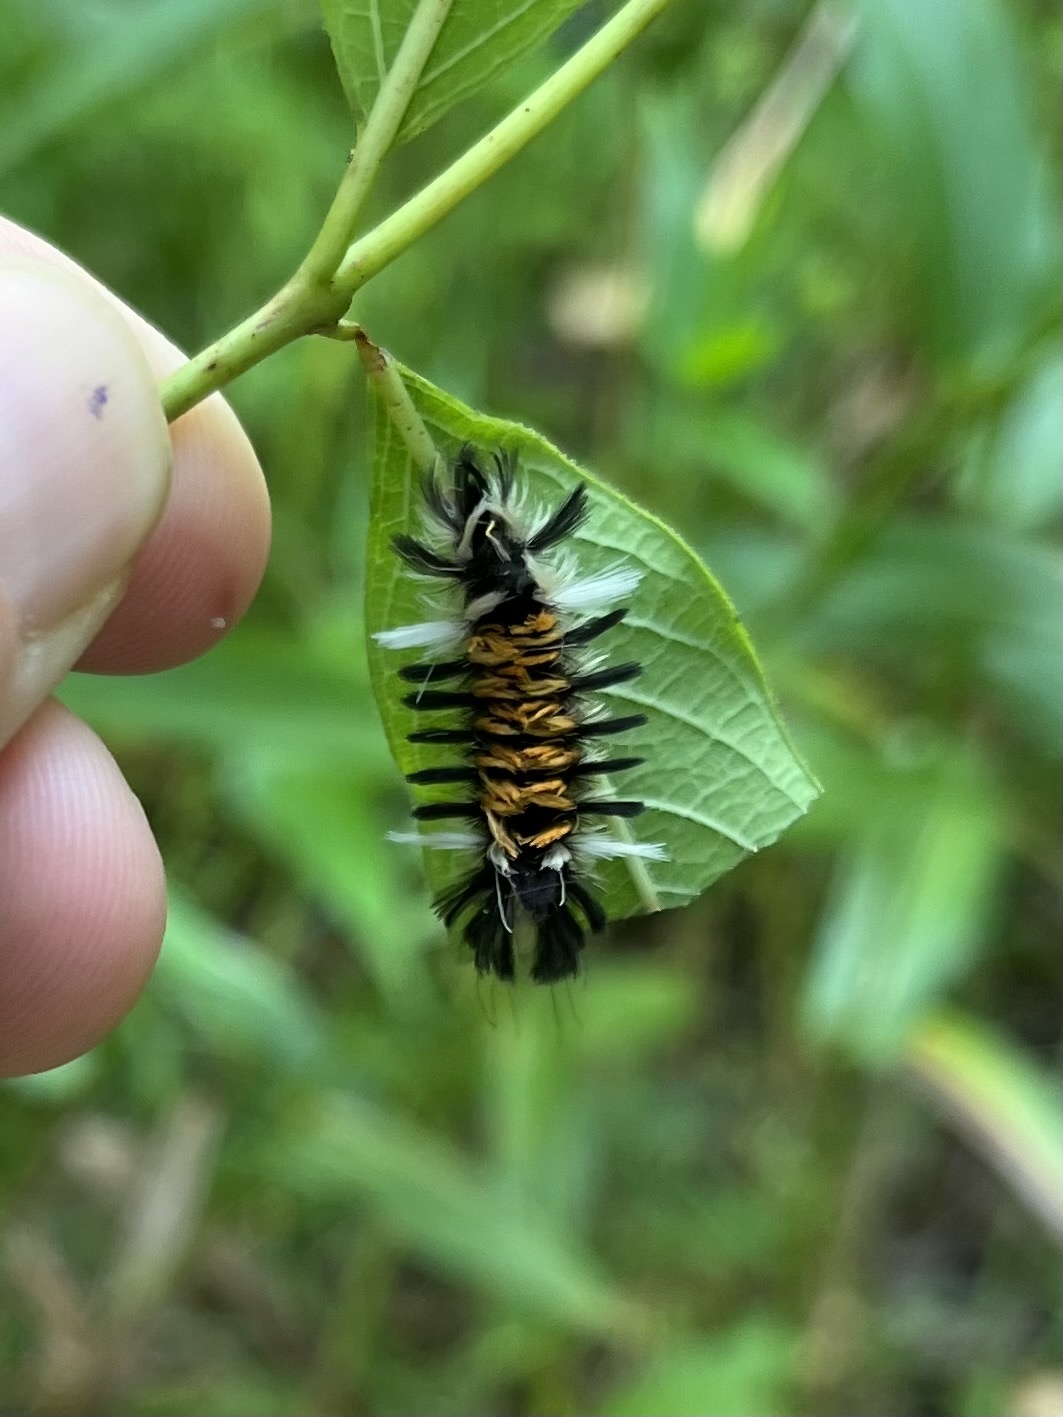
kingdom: Animalia
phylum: Arthropoda
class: Insecta
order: Lepidoptera
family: Erebidae
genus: Euchaetes
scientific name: Euchaetes egle
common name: Milkweed tussock moth
